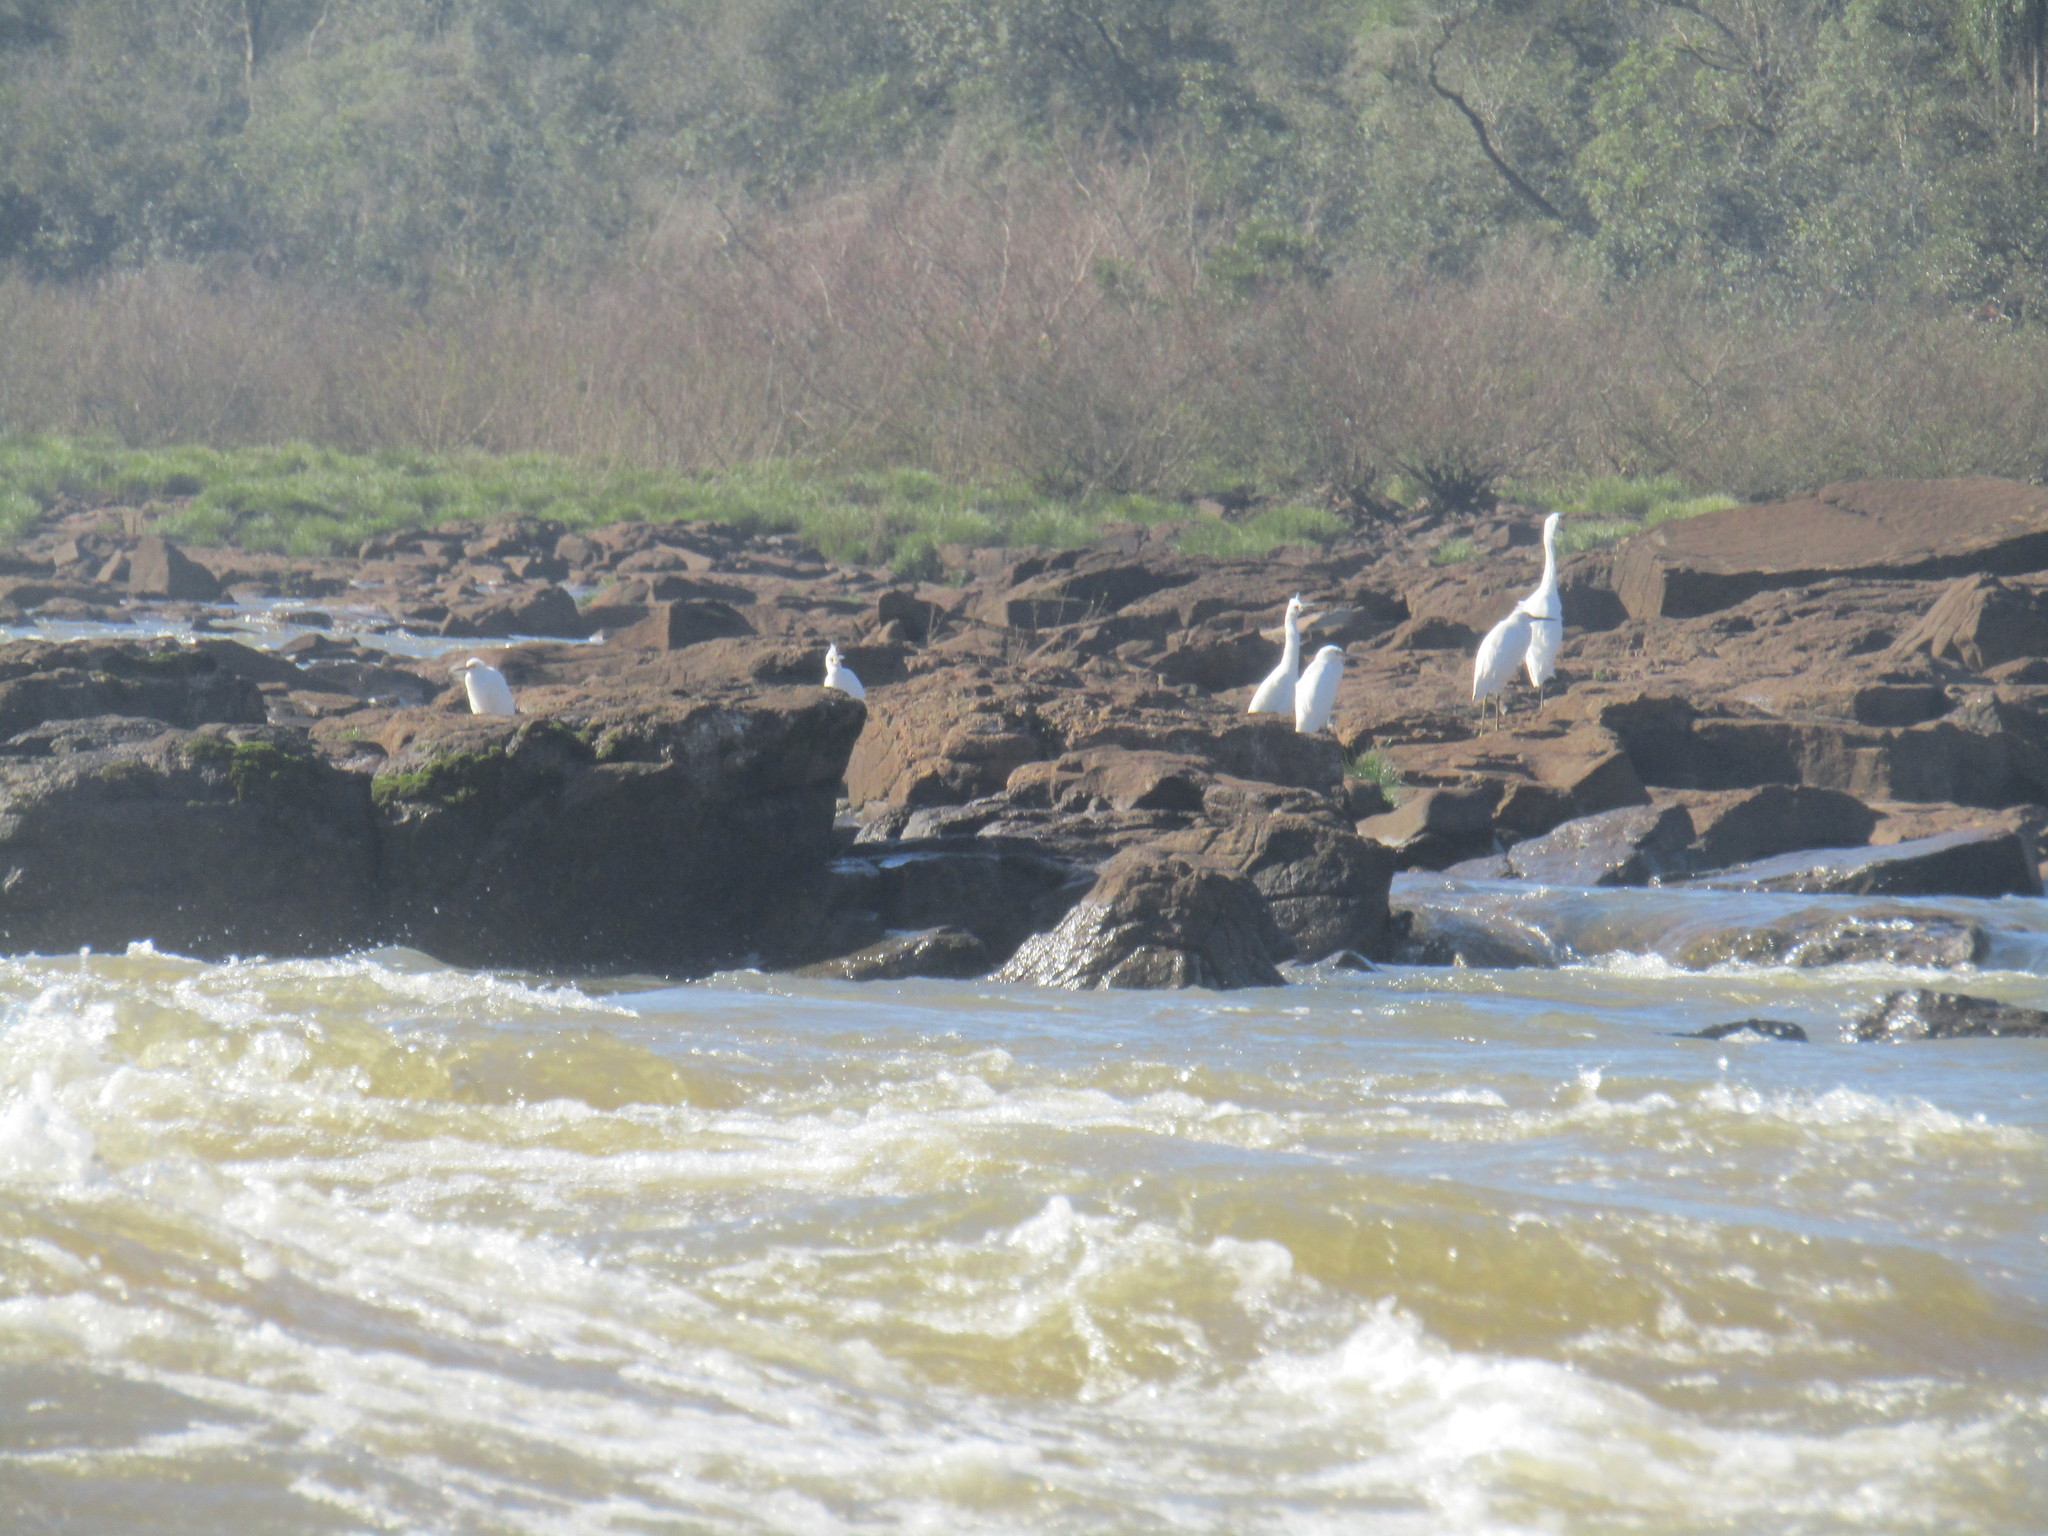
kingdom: Animalia
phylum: Chordata
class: Aves
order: Pelecaniformes
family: Ardeidae
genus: Egretta
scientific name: Egretta thula
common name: Snowy egret
